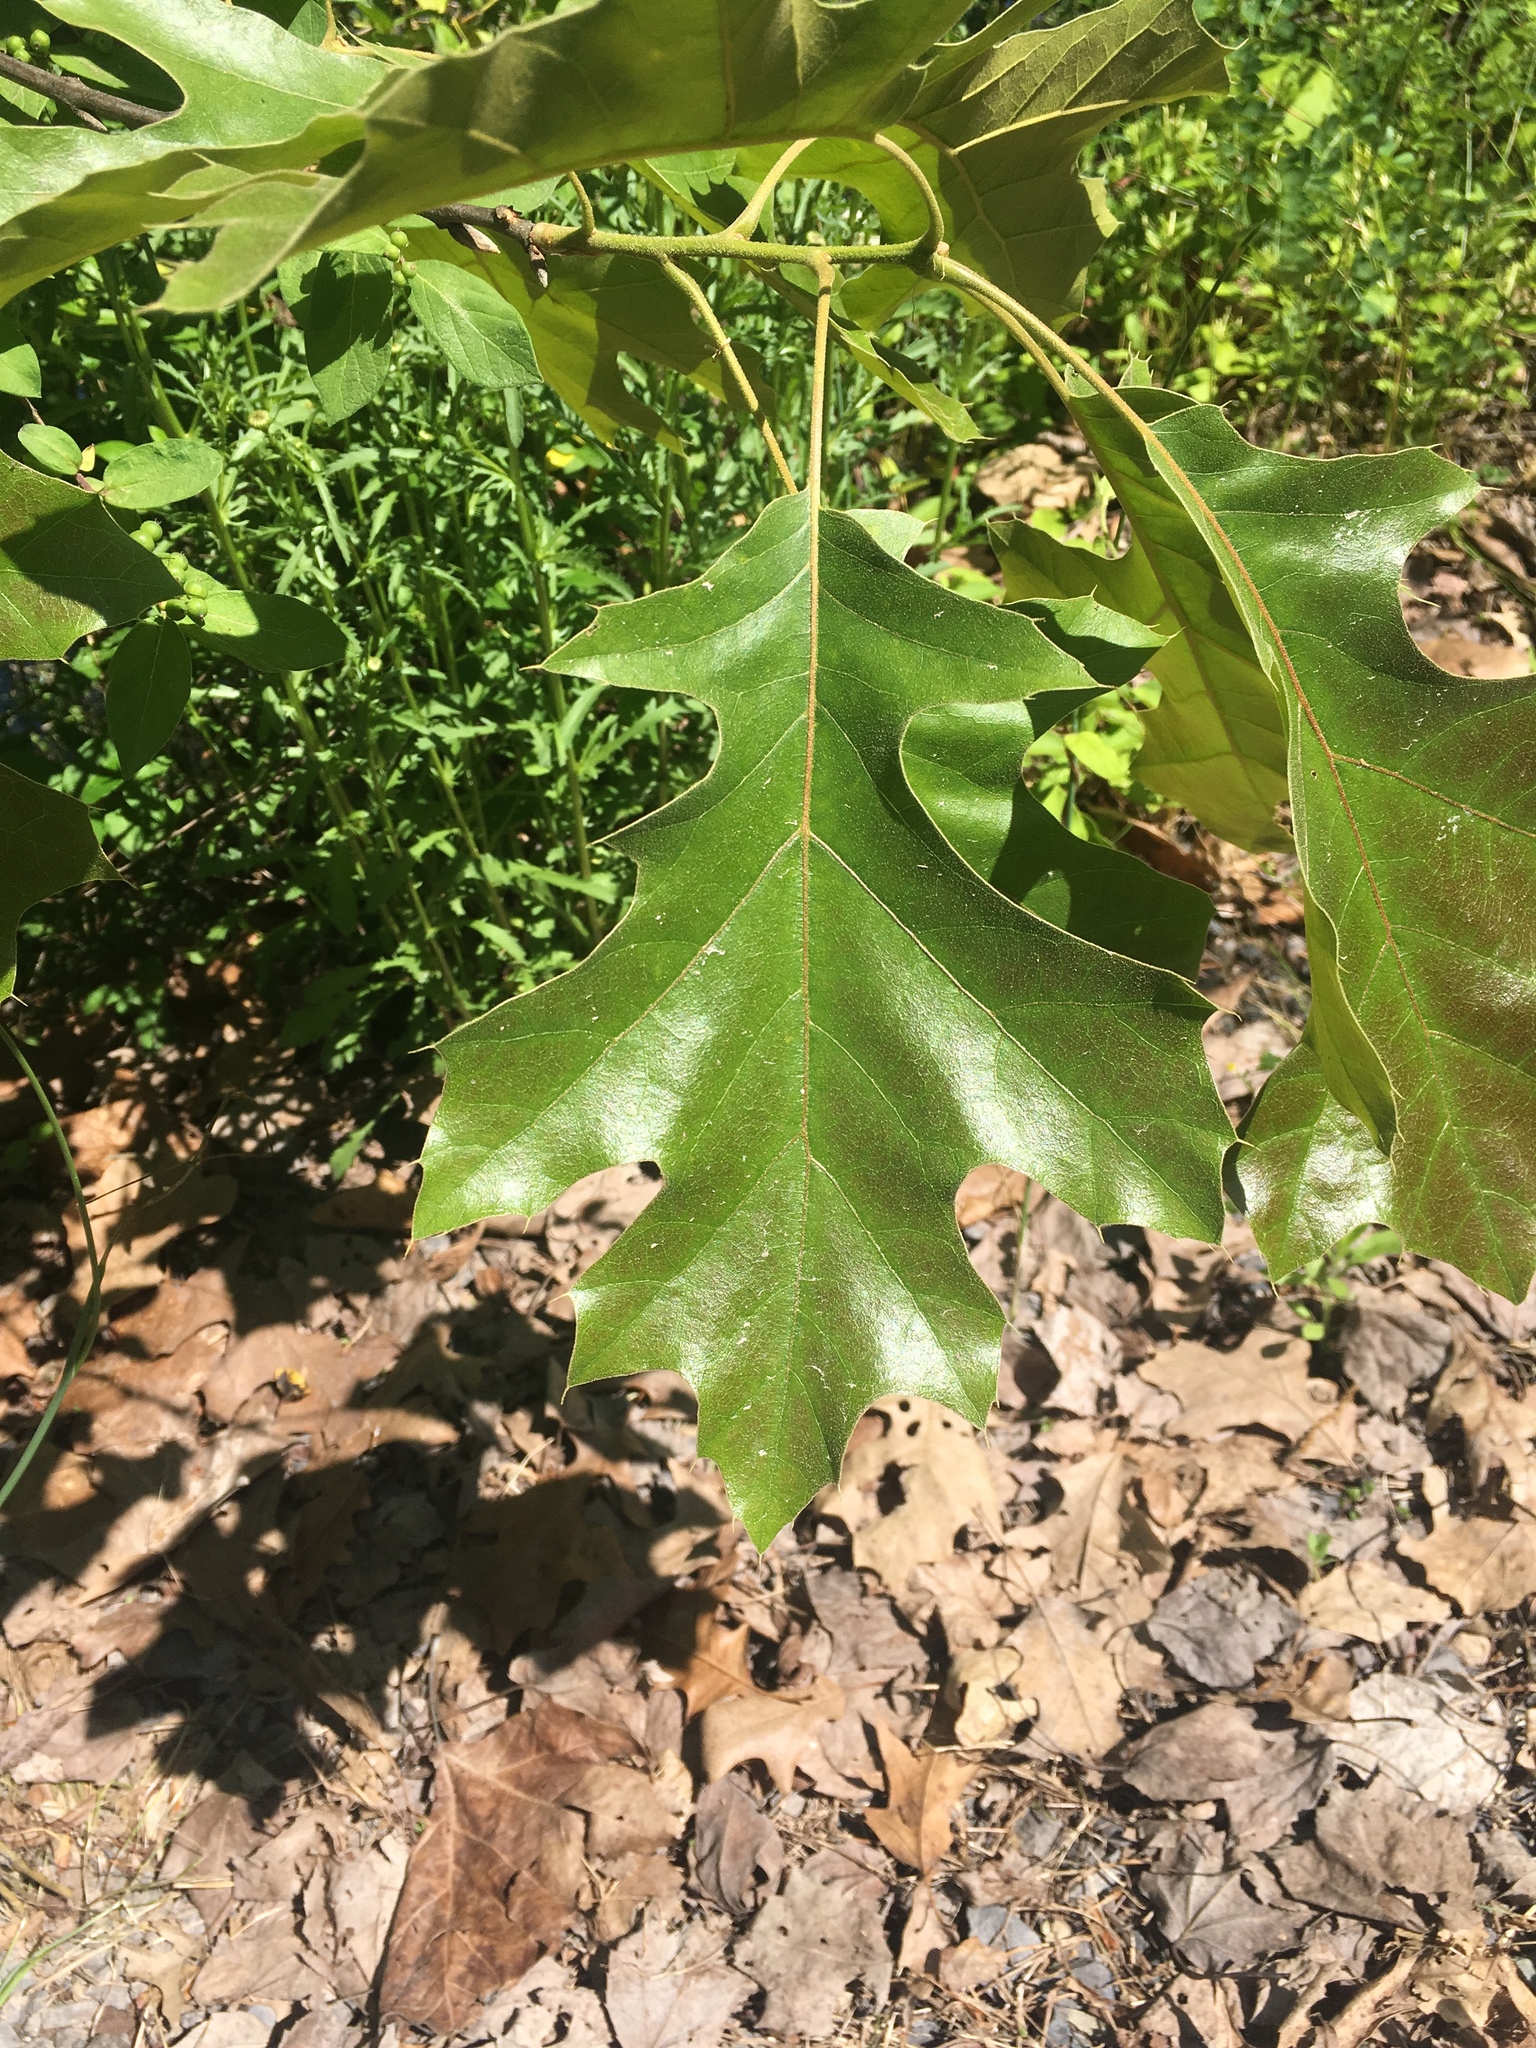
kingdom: Plantae
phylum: Tracheophyta
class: Magnoliopsida
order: Fagales
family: Fagaceae
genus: Quercus
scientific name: Quercus velutina
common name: Black oak
